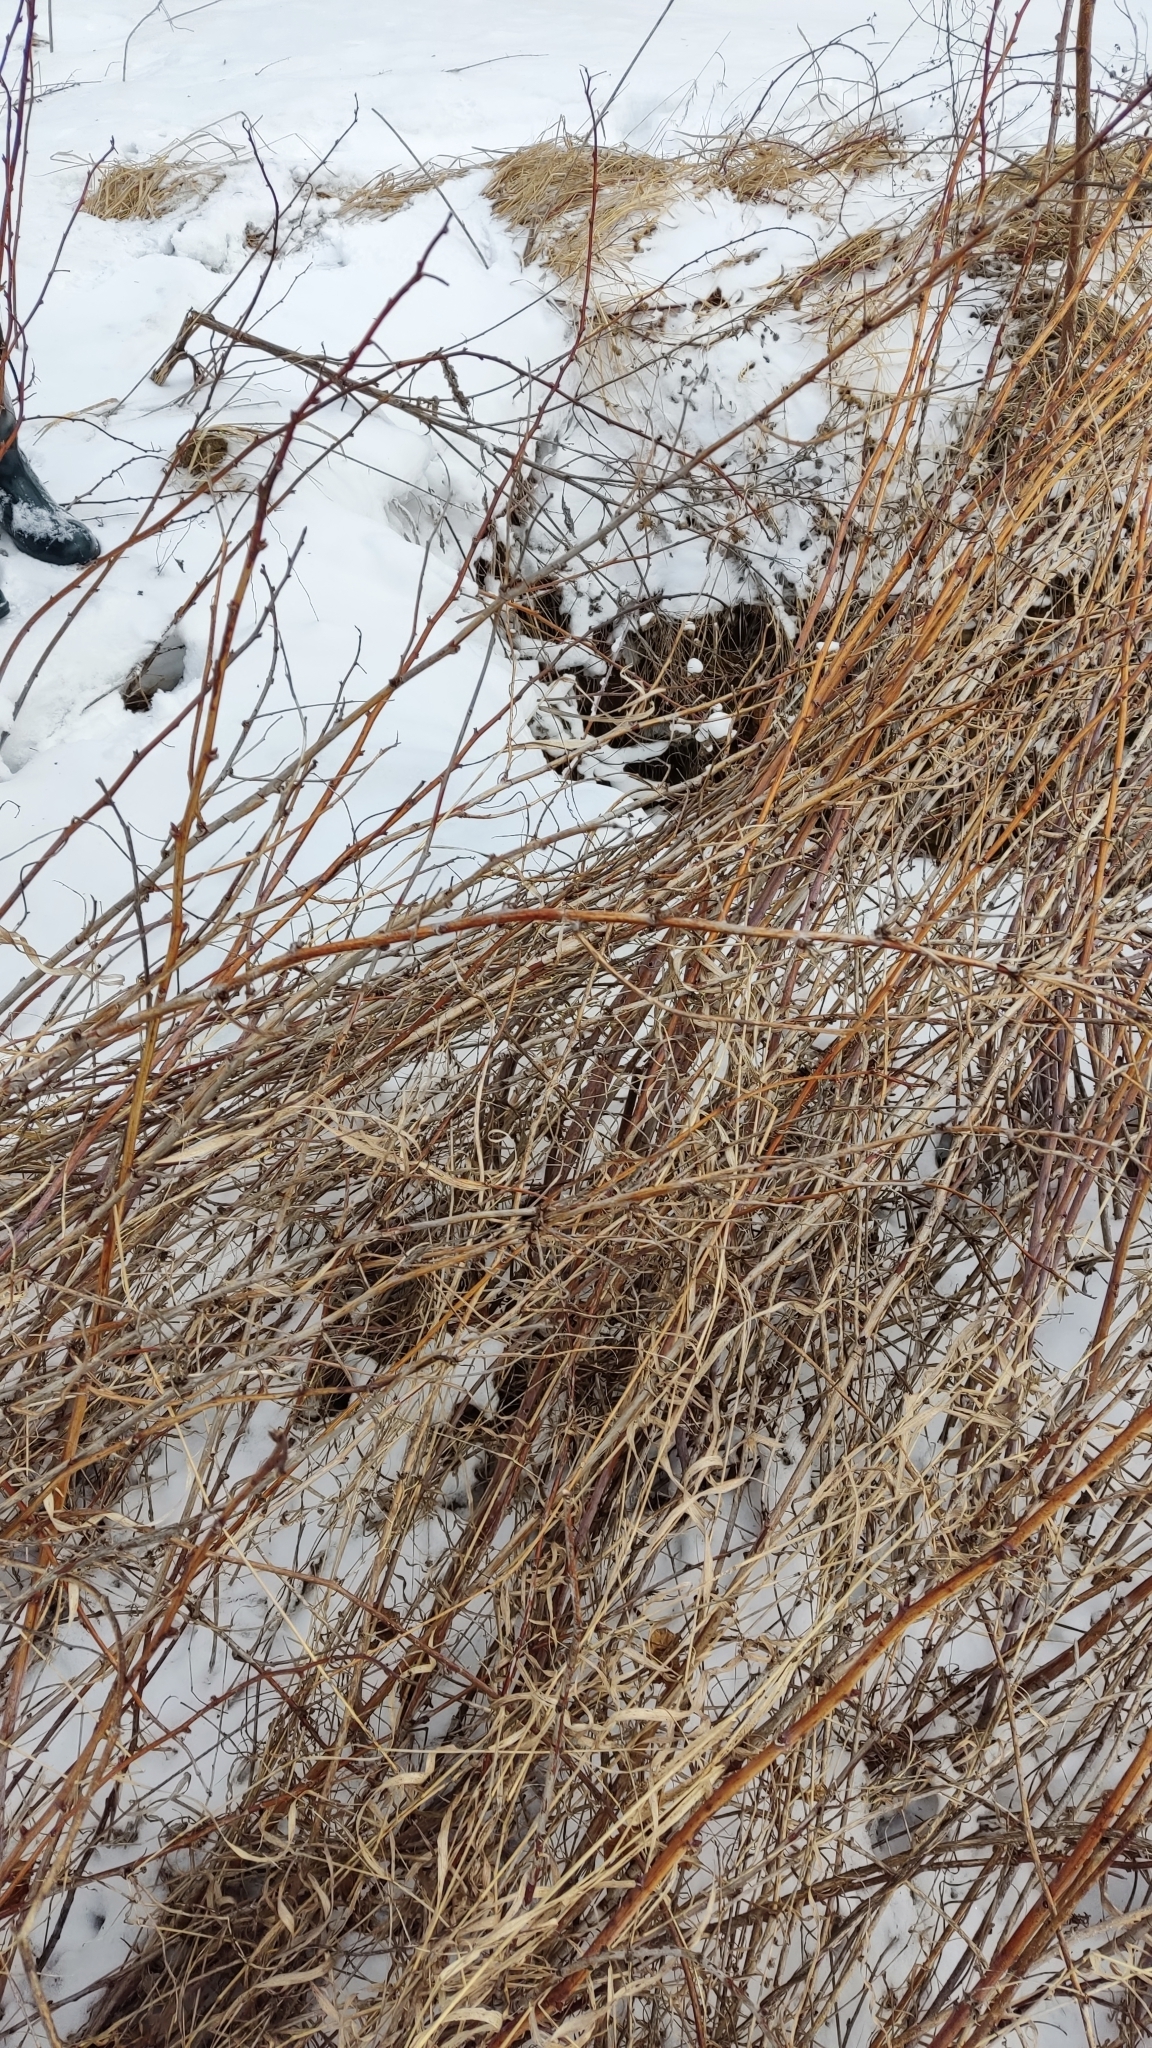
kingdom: Plantae
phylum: Tracheophyta
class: Magnoliopsida
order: Rosales
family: Rosaceae
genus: Rubus
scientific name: Rubus idaeus
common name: Raspberry
